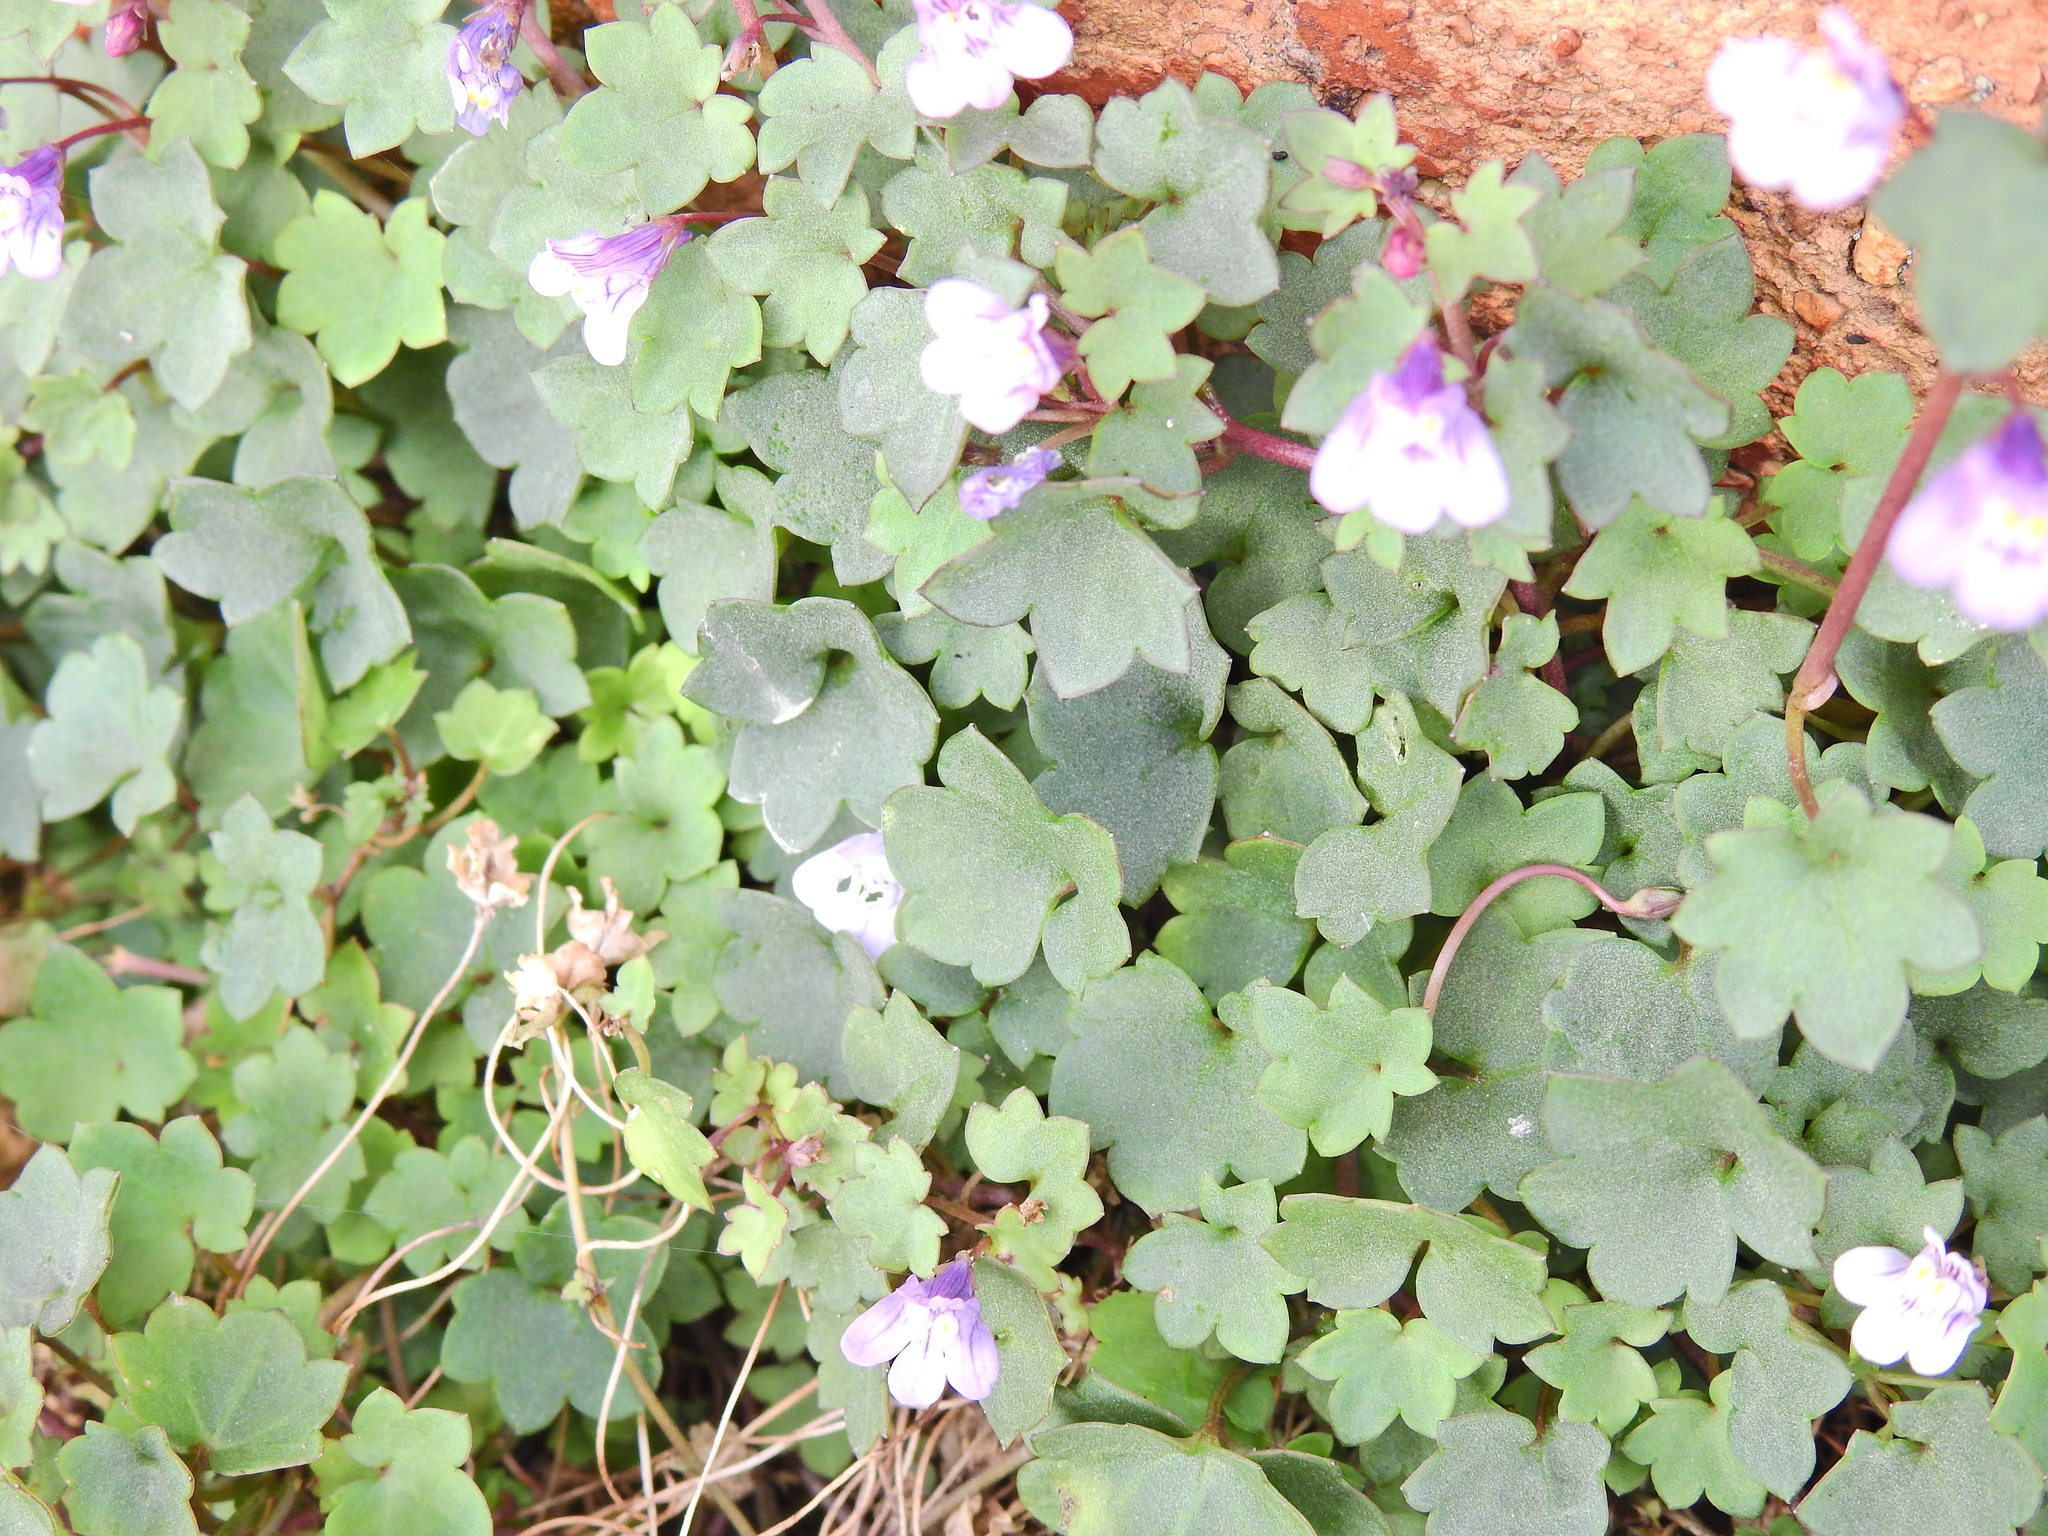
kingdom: Plantae
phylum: Tracheophyta
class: Magnoliopsida
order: Lamiales
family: Plantaginaceae
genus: Cymbalaria
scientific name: Cymbalaria muralis
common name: Ivy-leaved toadflax
